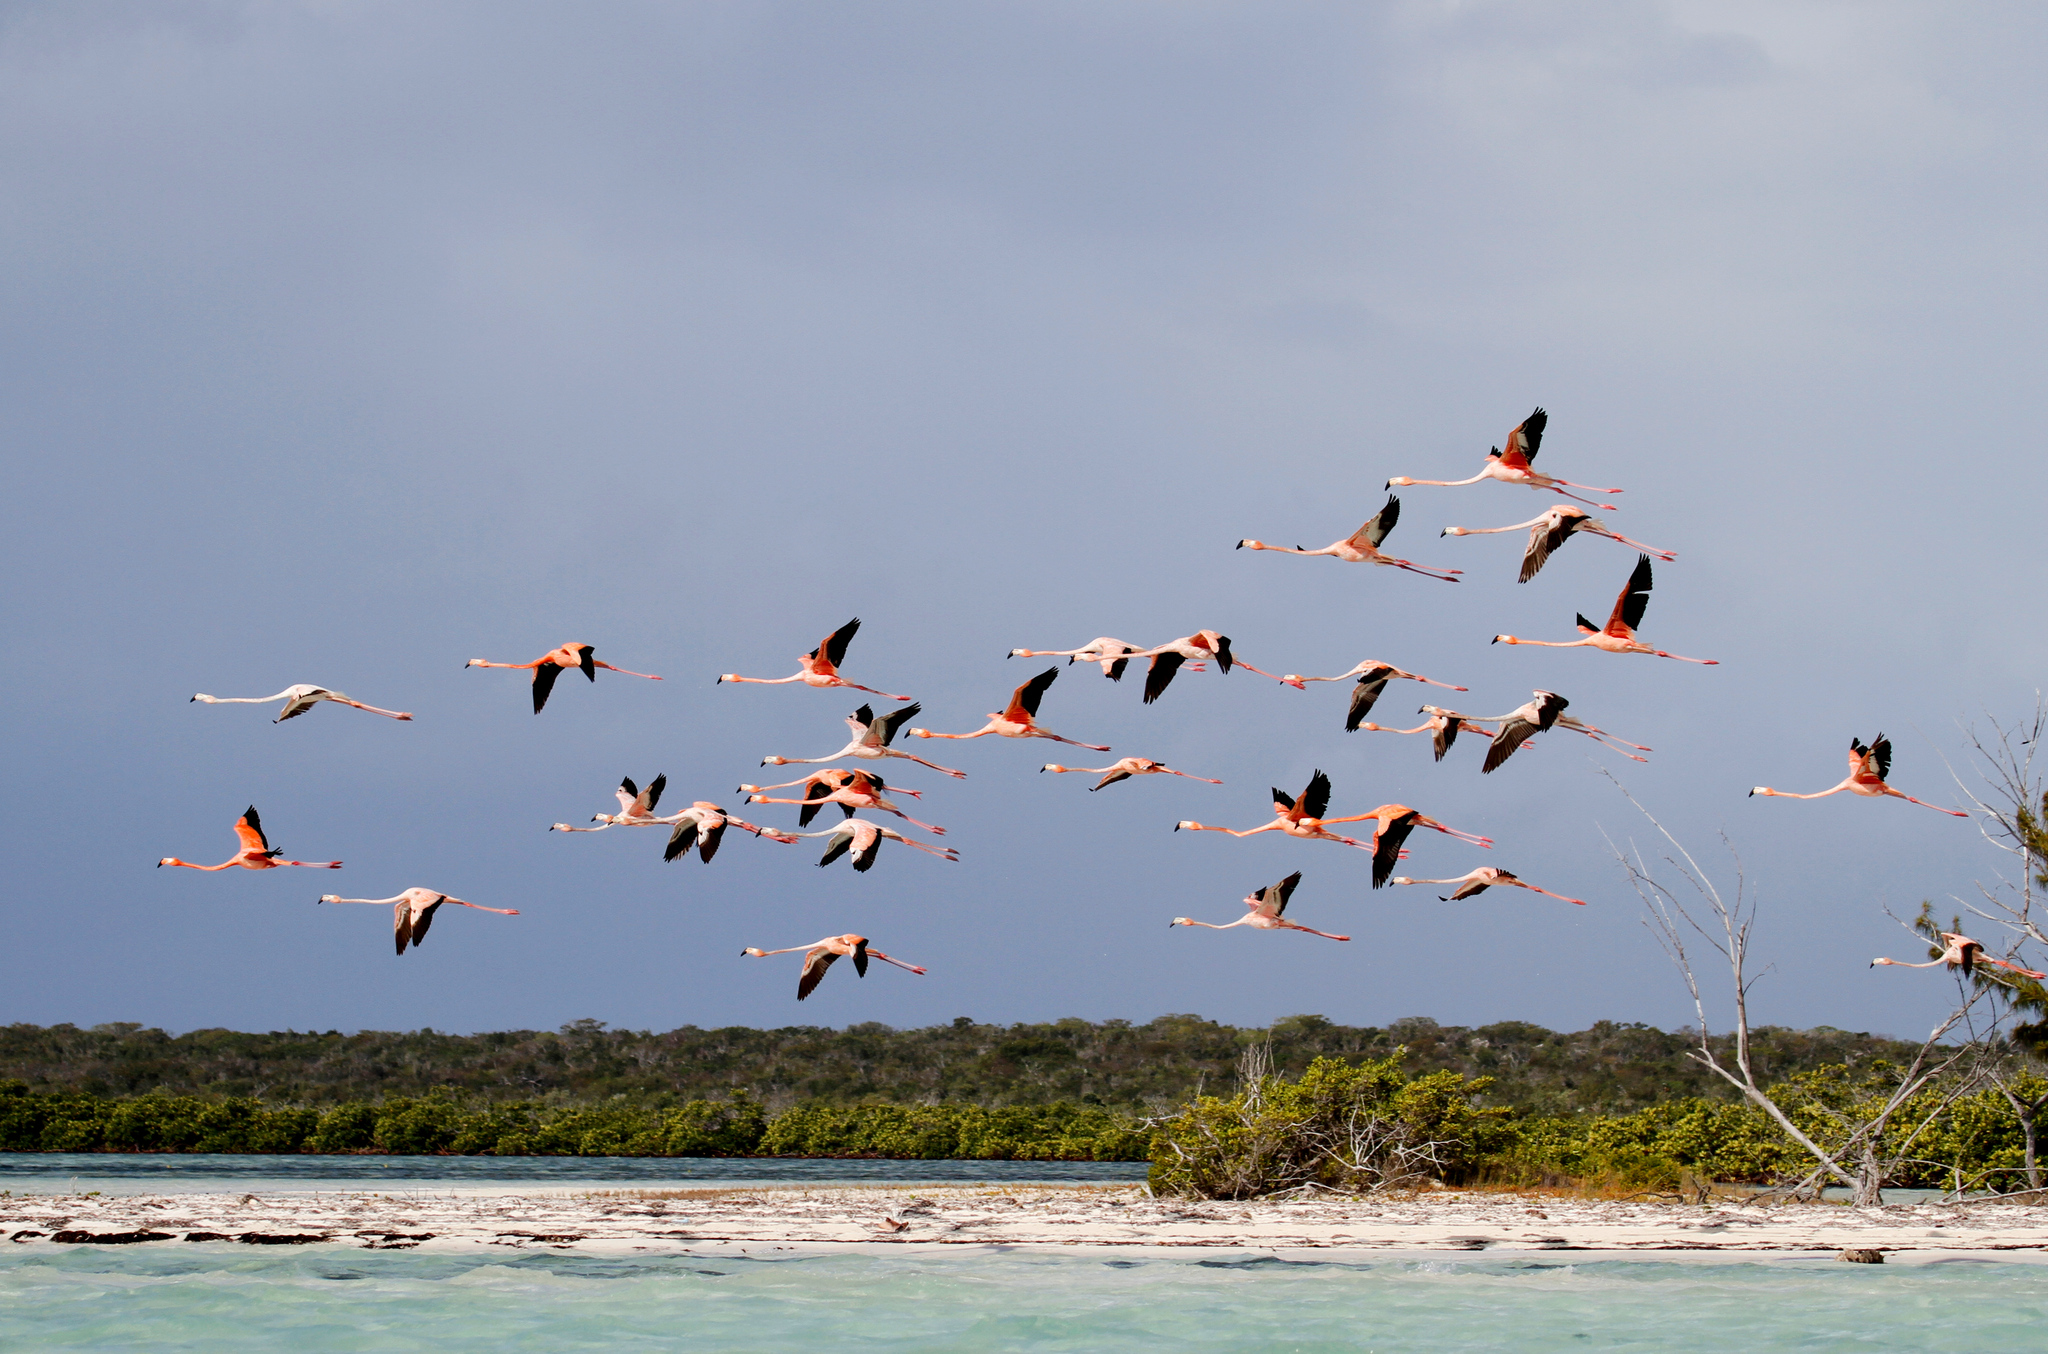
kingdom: Animalia
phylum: Chordata
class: Aves
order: Phoenicopteriformes
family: Phoenicopteridae
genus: Phoenicopterus
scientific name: Phoenicopterus ruber
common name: American flamingo
